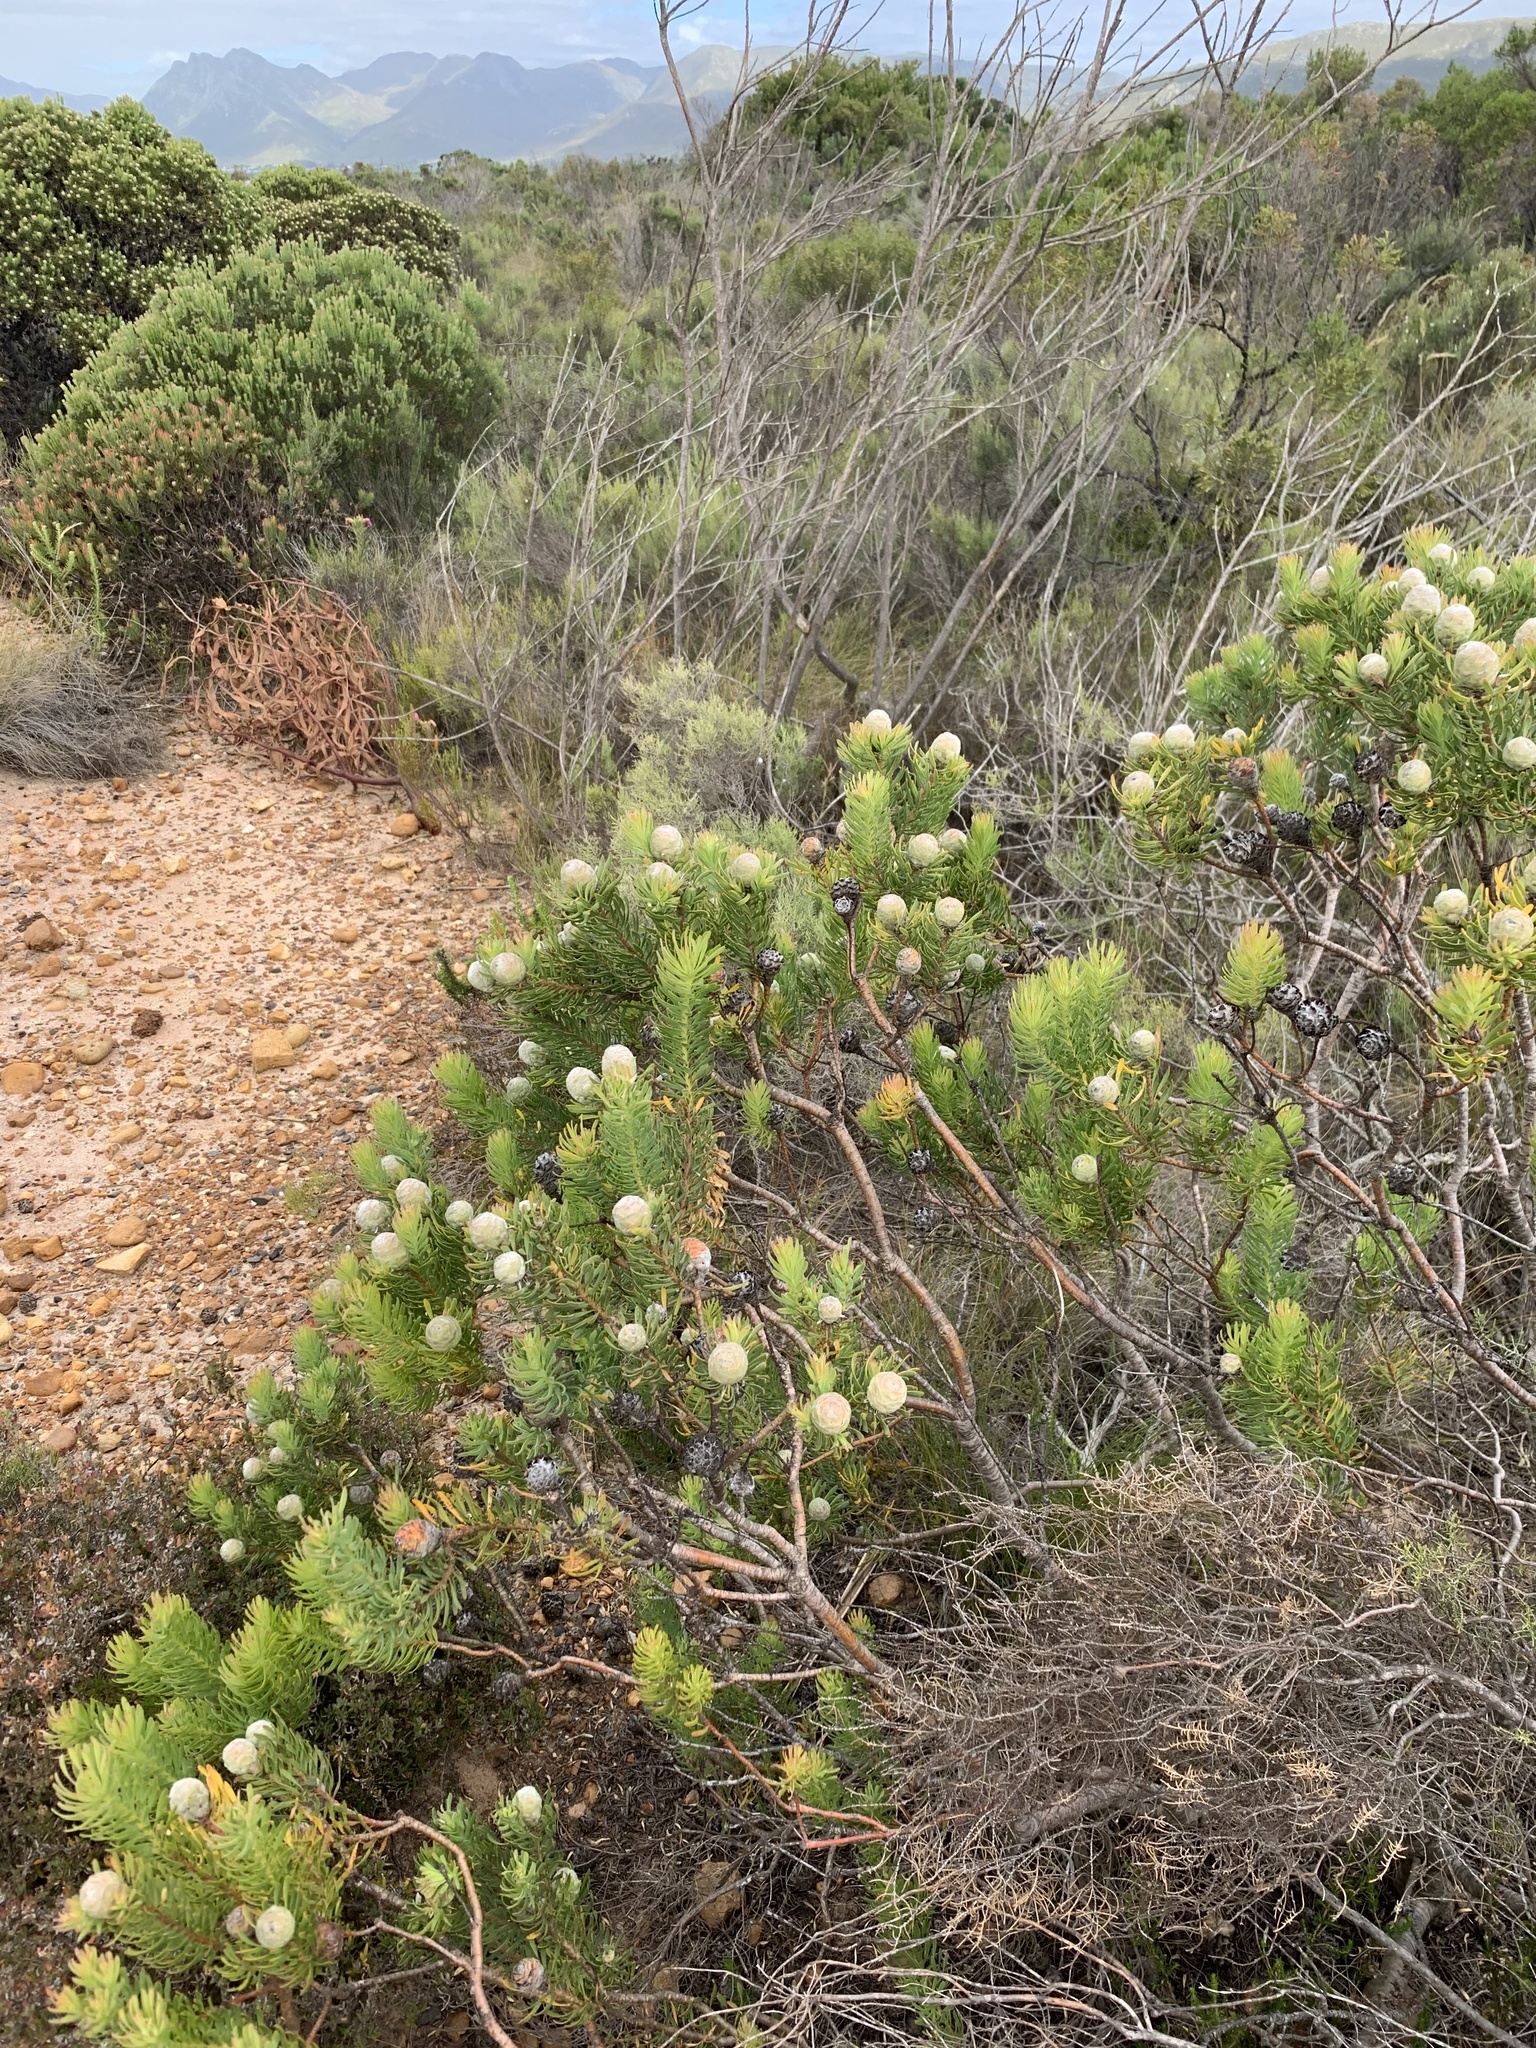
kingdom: Plantae
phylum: Tracheophyta
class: Magnoliopsida
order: Proteales
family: Proteaceae
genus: Leucadendron
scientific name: Leucadendron linifolium
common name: Line-leaf conebush
